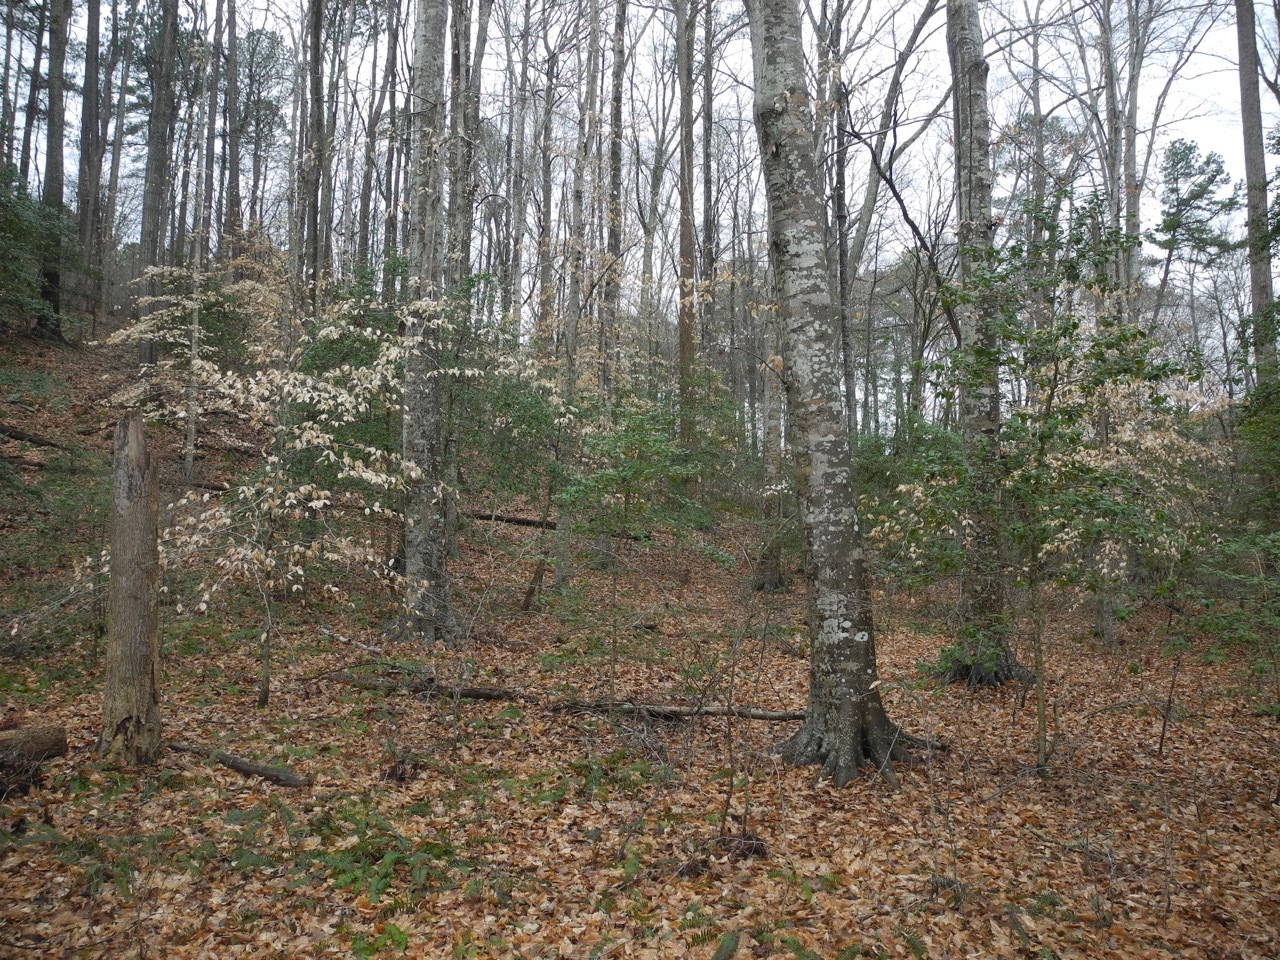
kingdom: Plantae
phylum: Tracheophyta
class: Magnoliopsida
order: Fagales
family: Fagaceae
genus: Fagus
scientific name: Fagus grandifolia
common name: American beech
